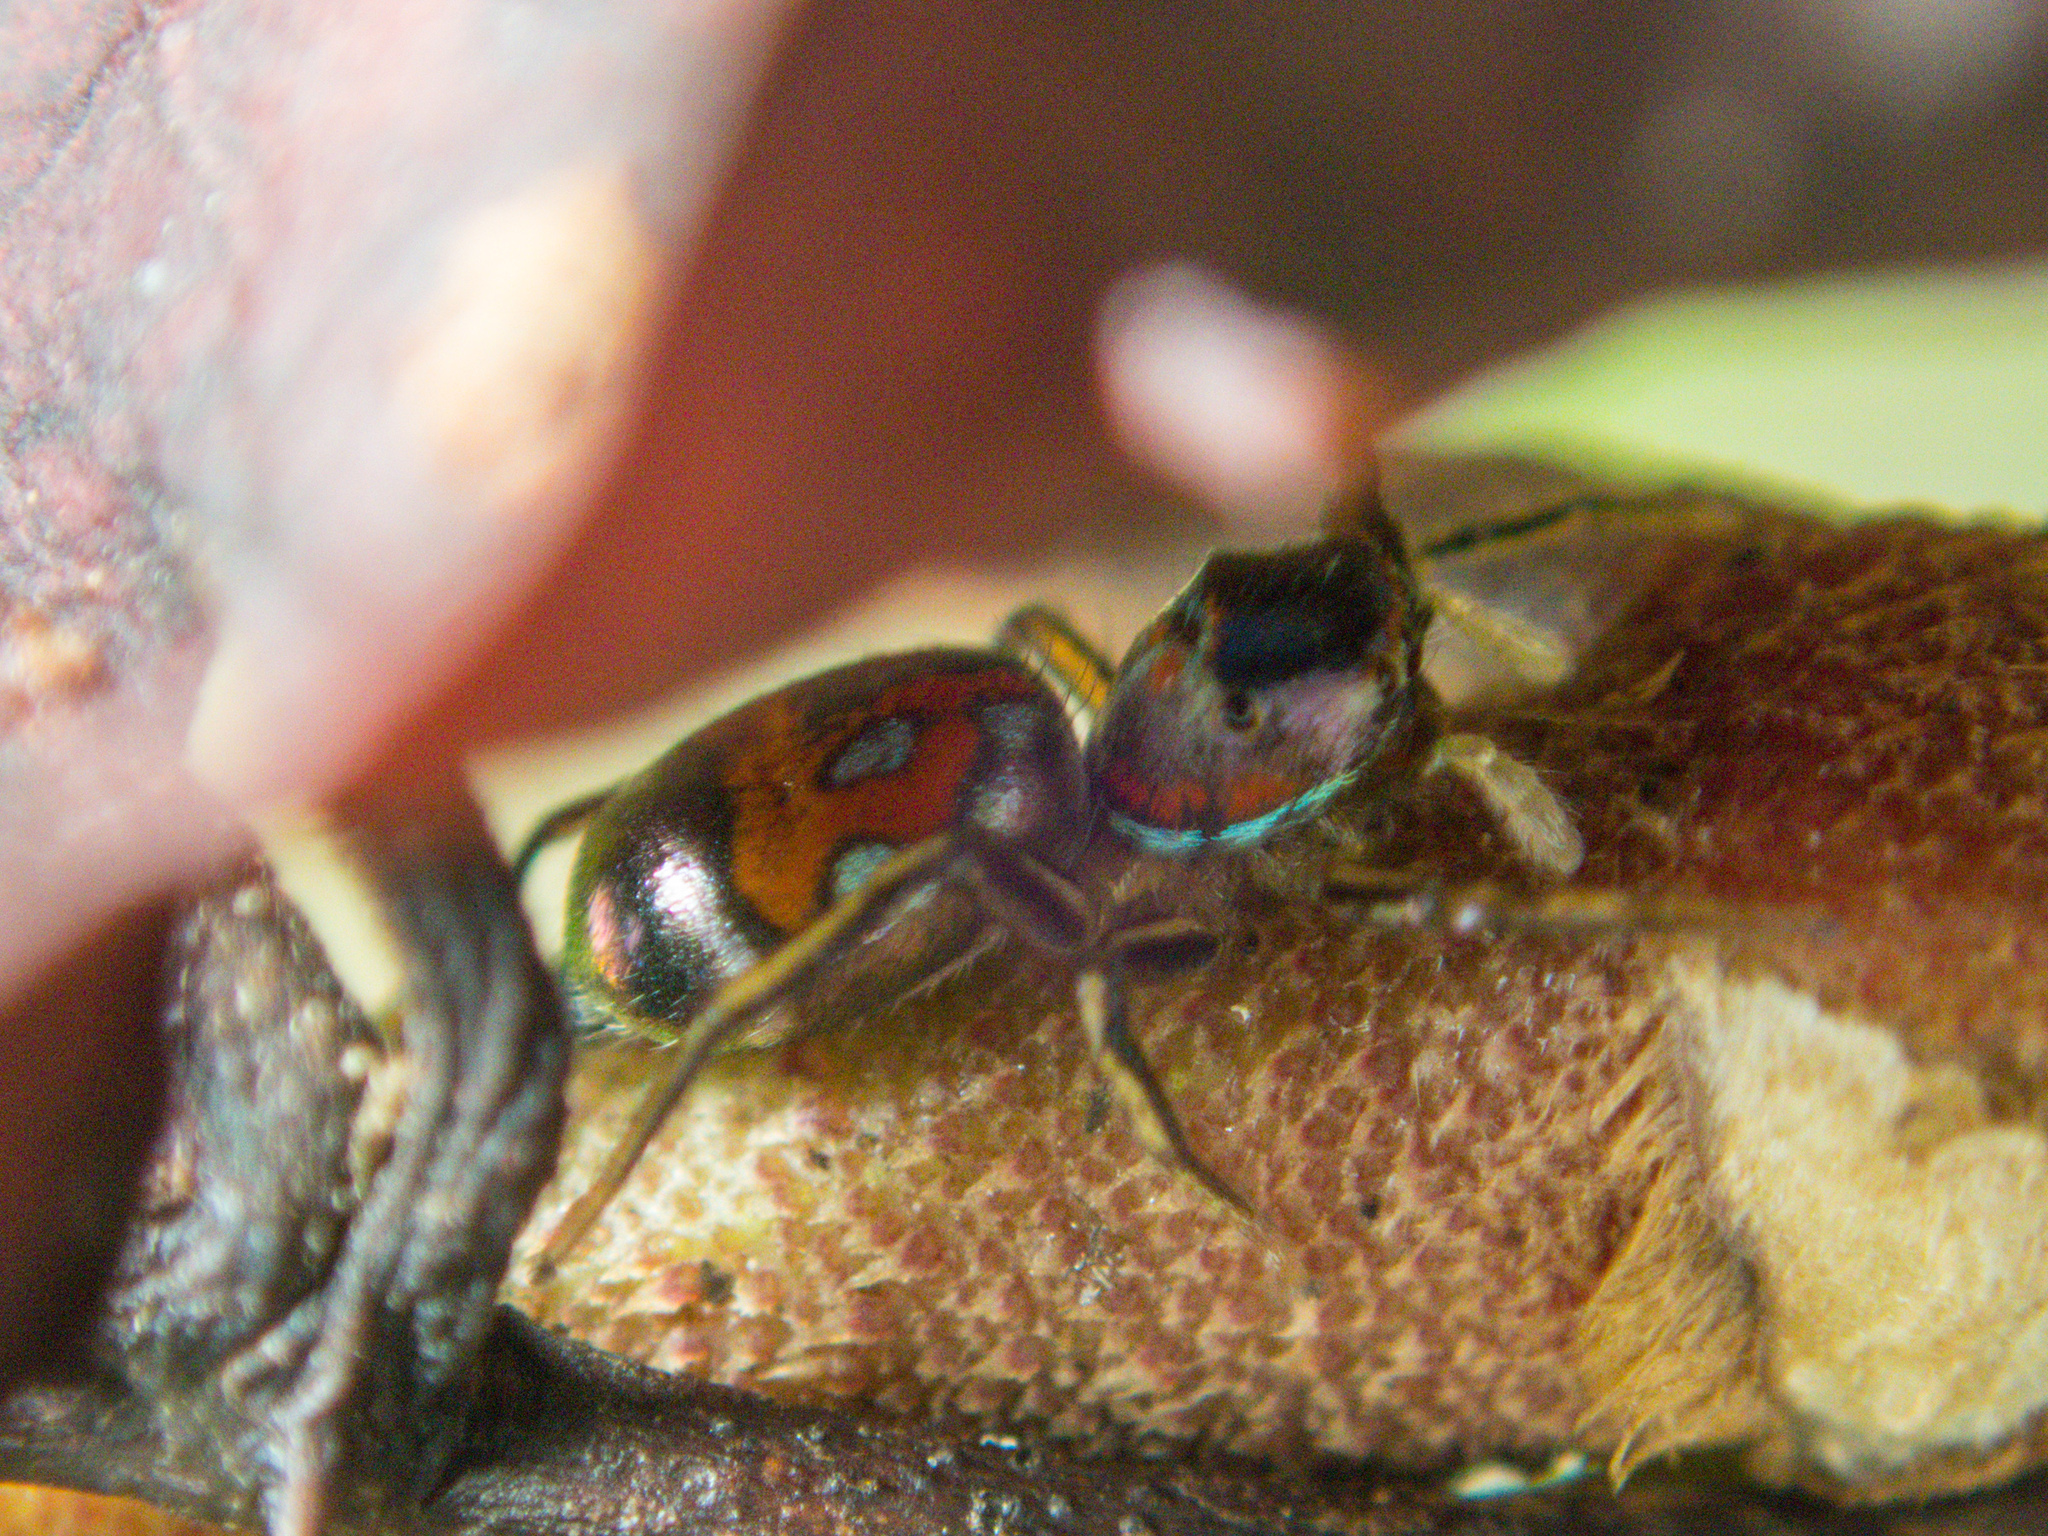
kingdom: Animalia
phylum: Arthropoda
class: Arachnida
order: Araneae
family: Salticidae
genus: Siler
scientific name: Siler semiglaucus
